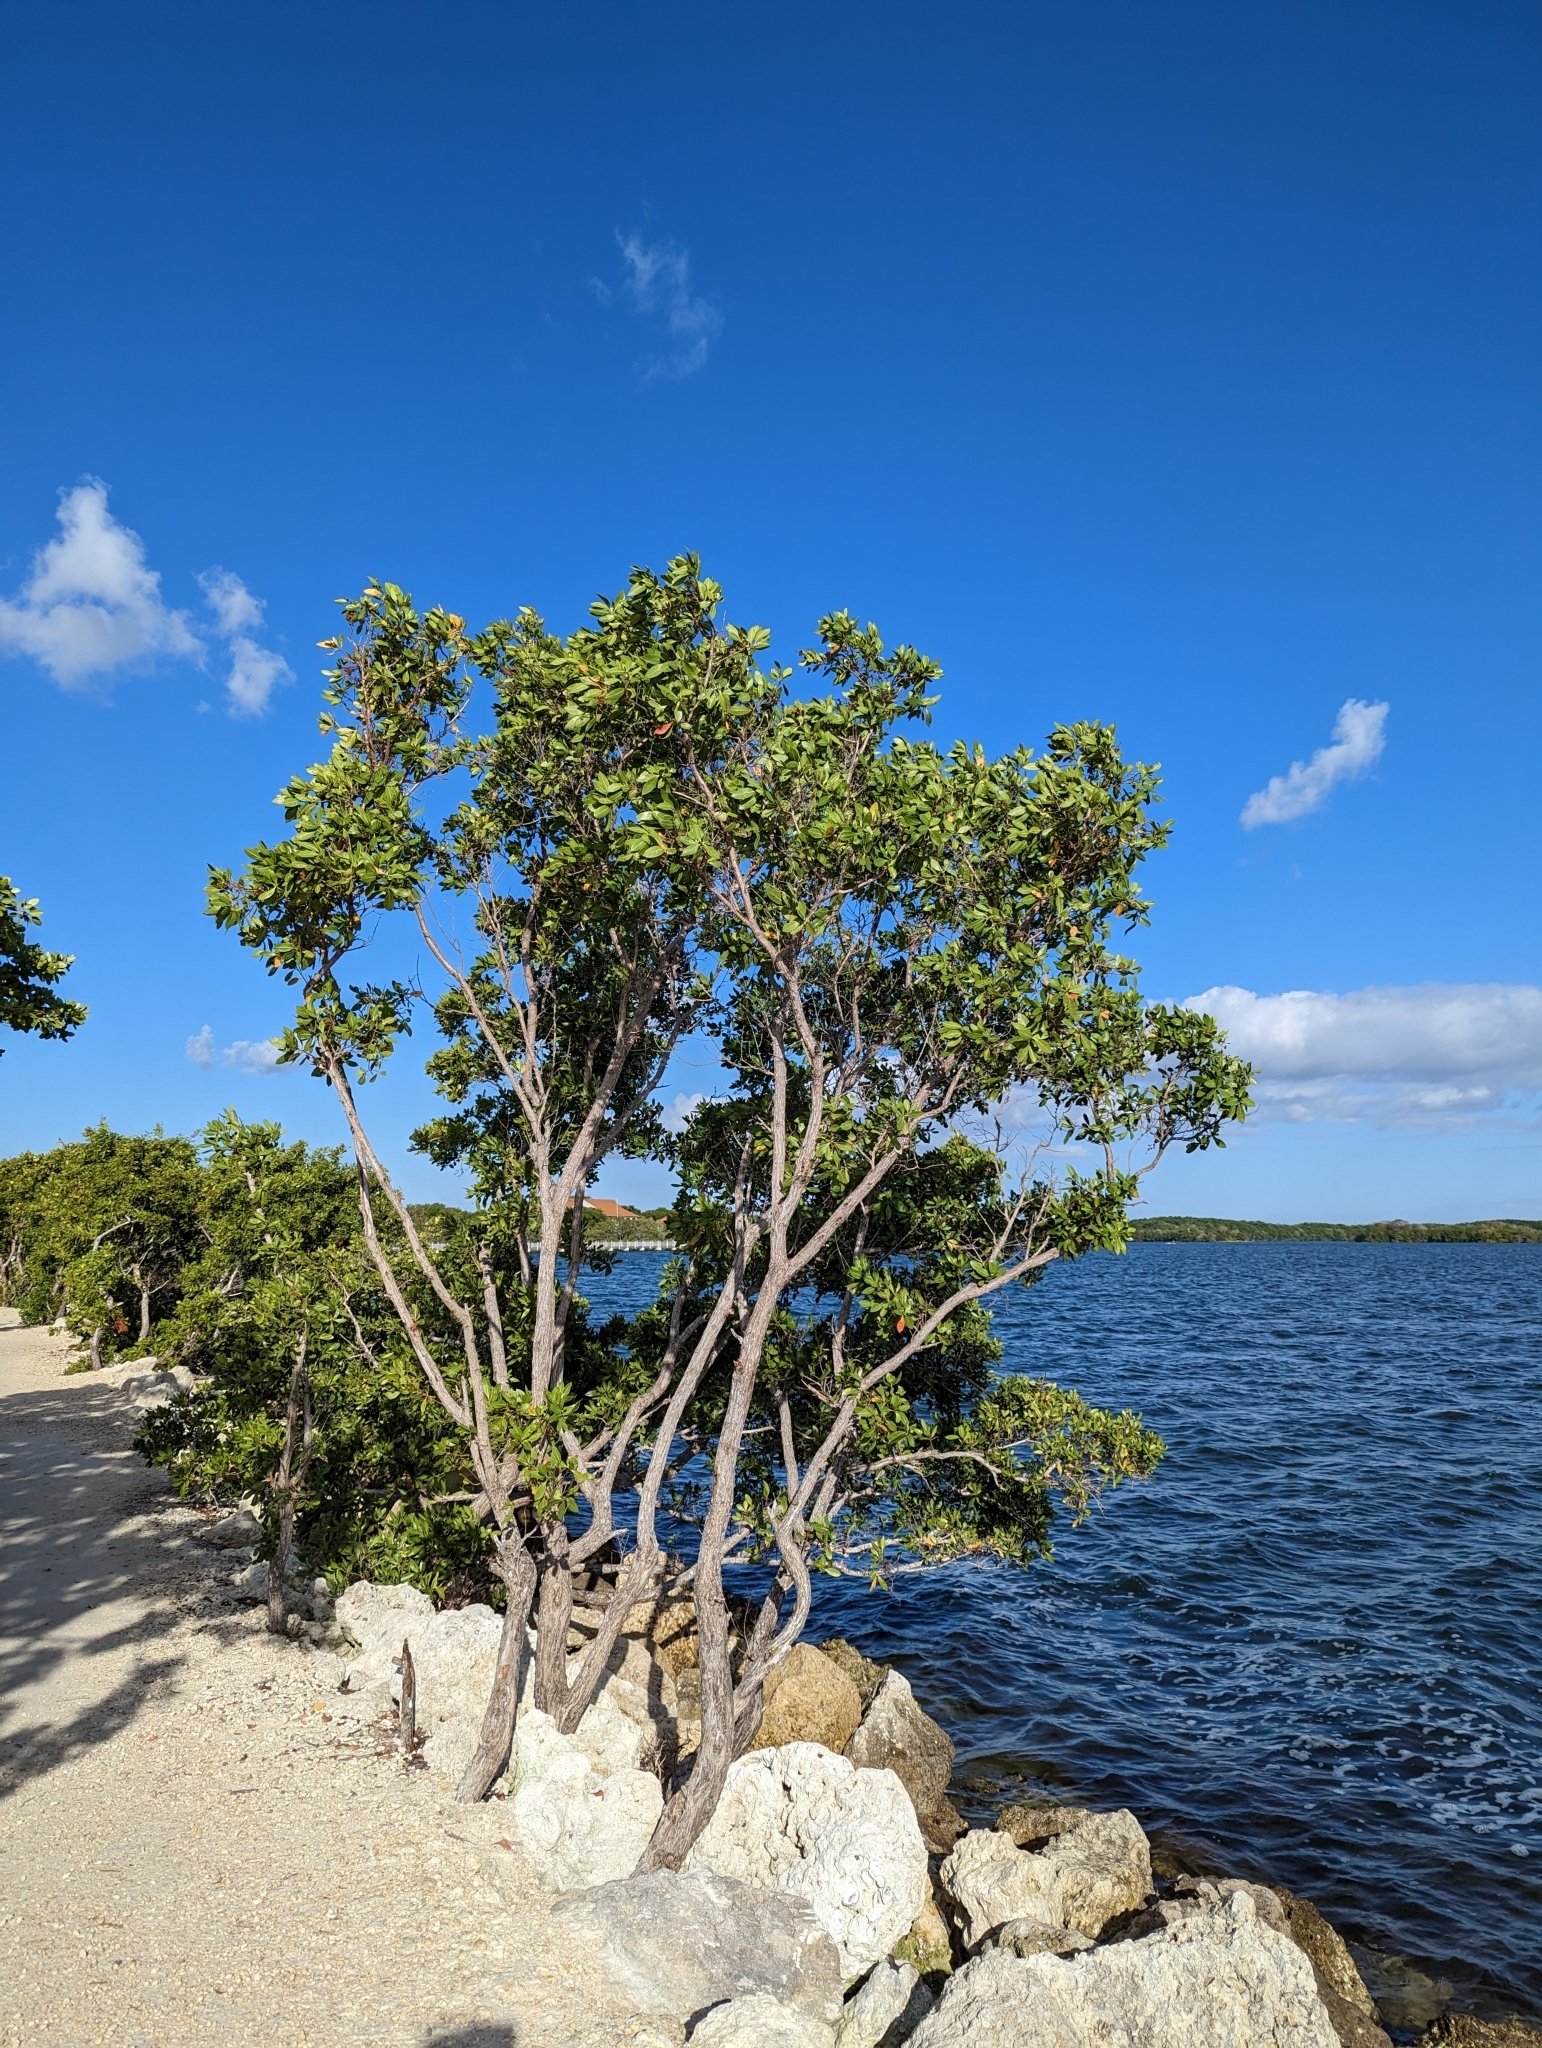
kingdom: Plantae
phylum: Tracheophyta
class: Magnoliopsida
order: Myrtales
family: Combretaceae
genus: Conocarpus
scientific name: Conocarpus erectus
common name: Button mangrove
